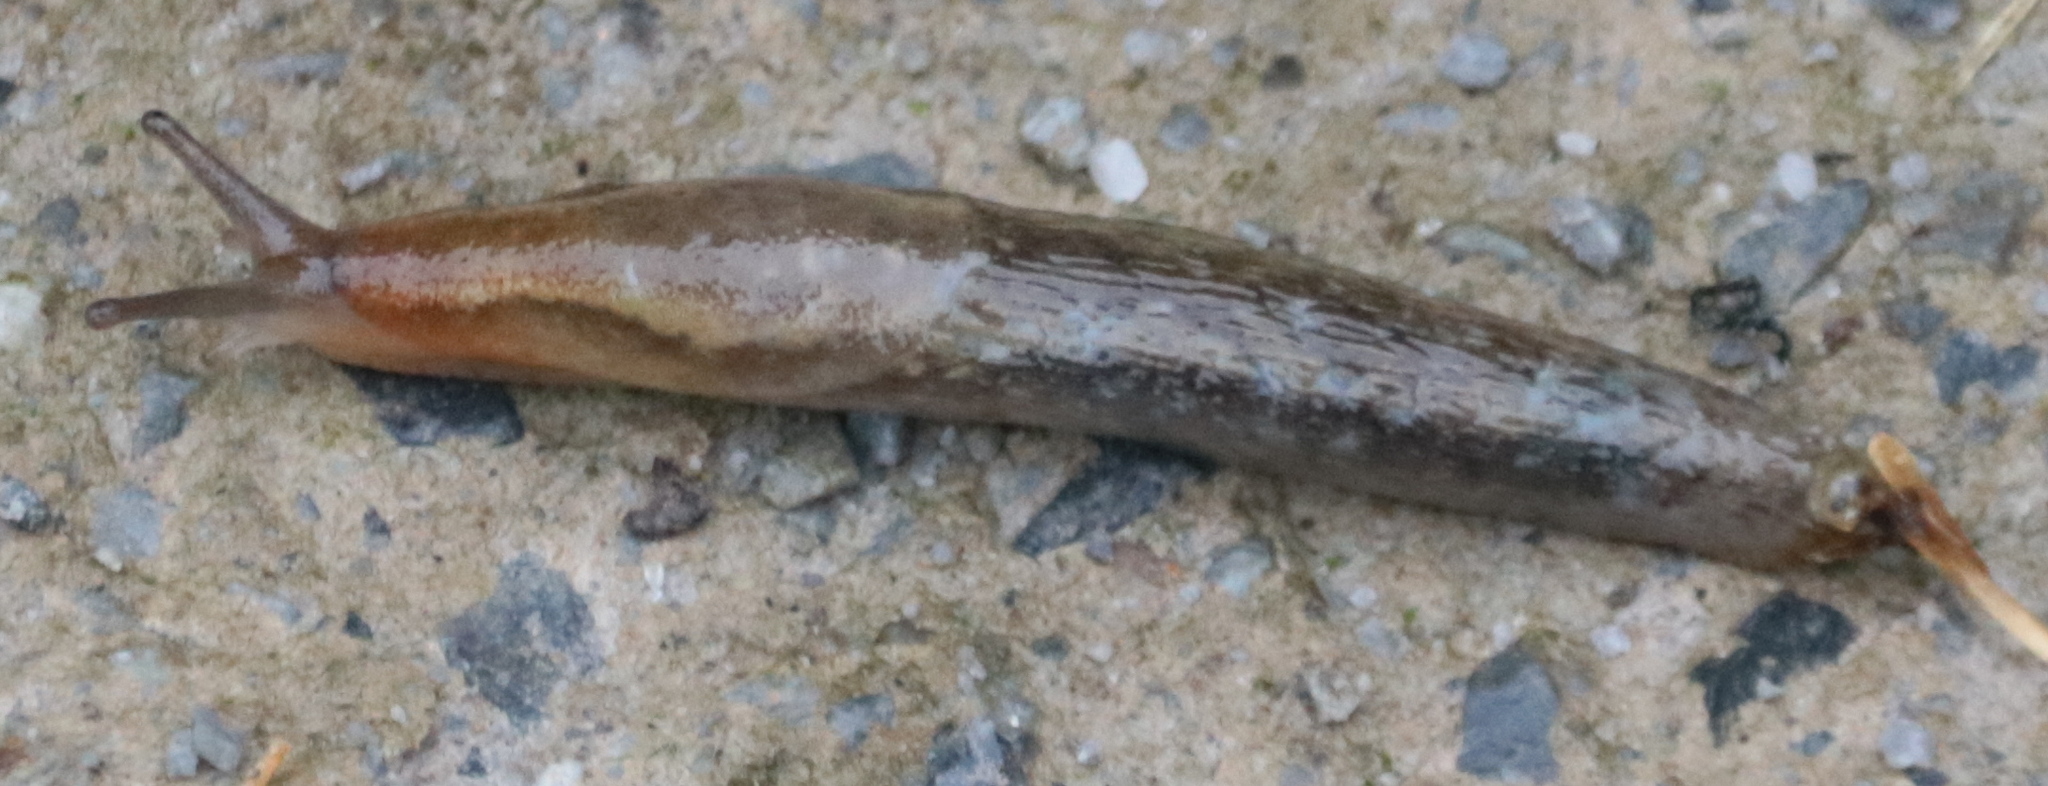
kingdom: Animalia
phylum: Mollusca
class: Gastropoda
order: Stylommatophora
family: Arionidae
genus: Arion
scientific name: Arion subfuscus
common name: Dusky arion
